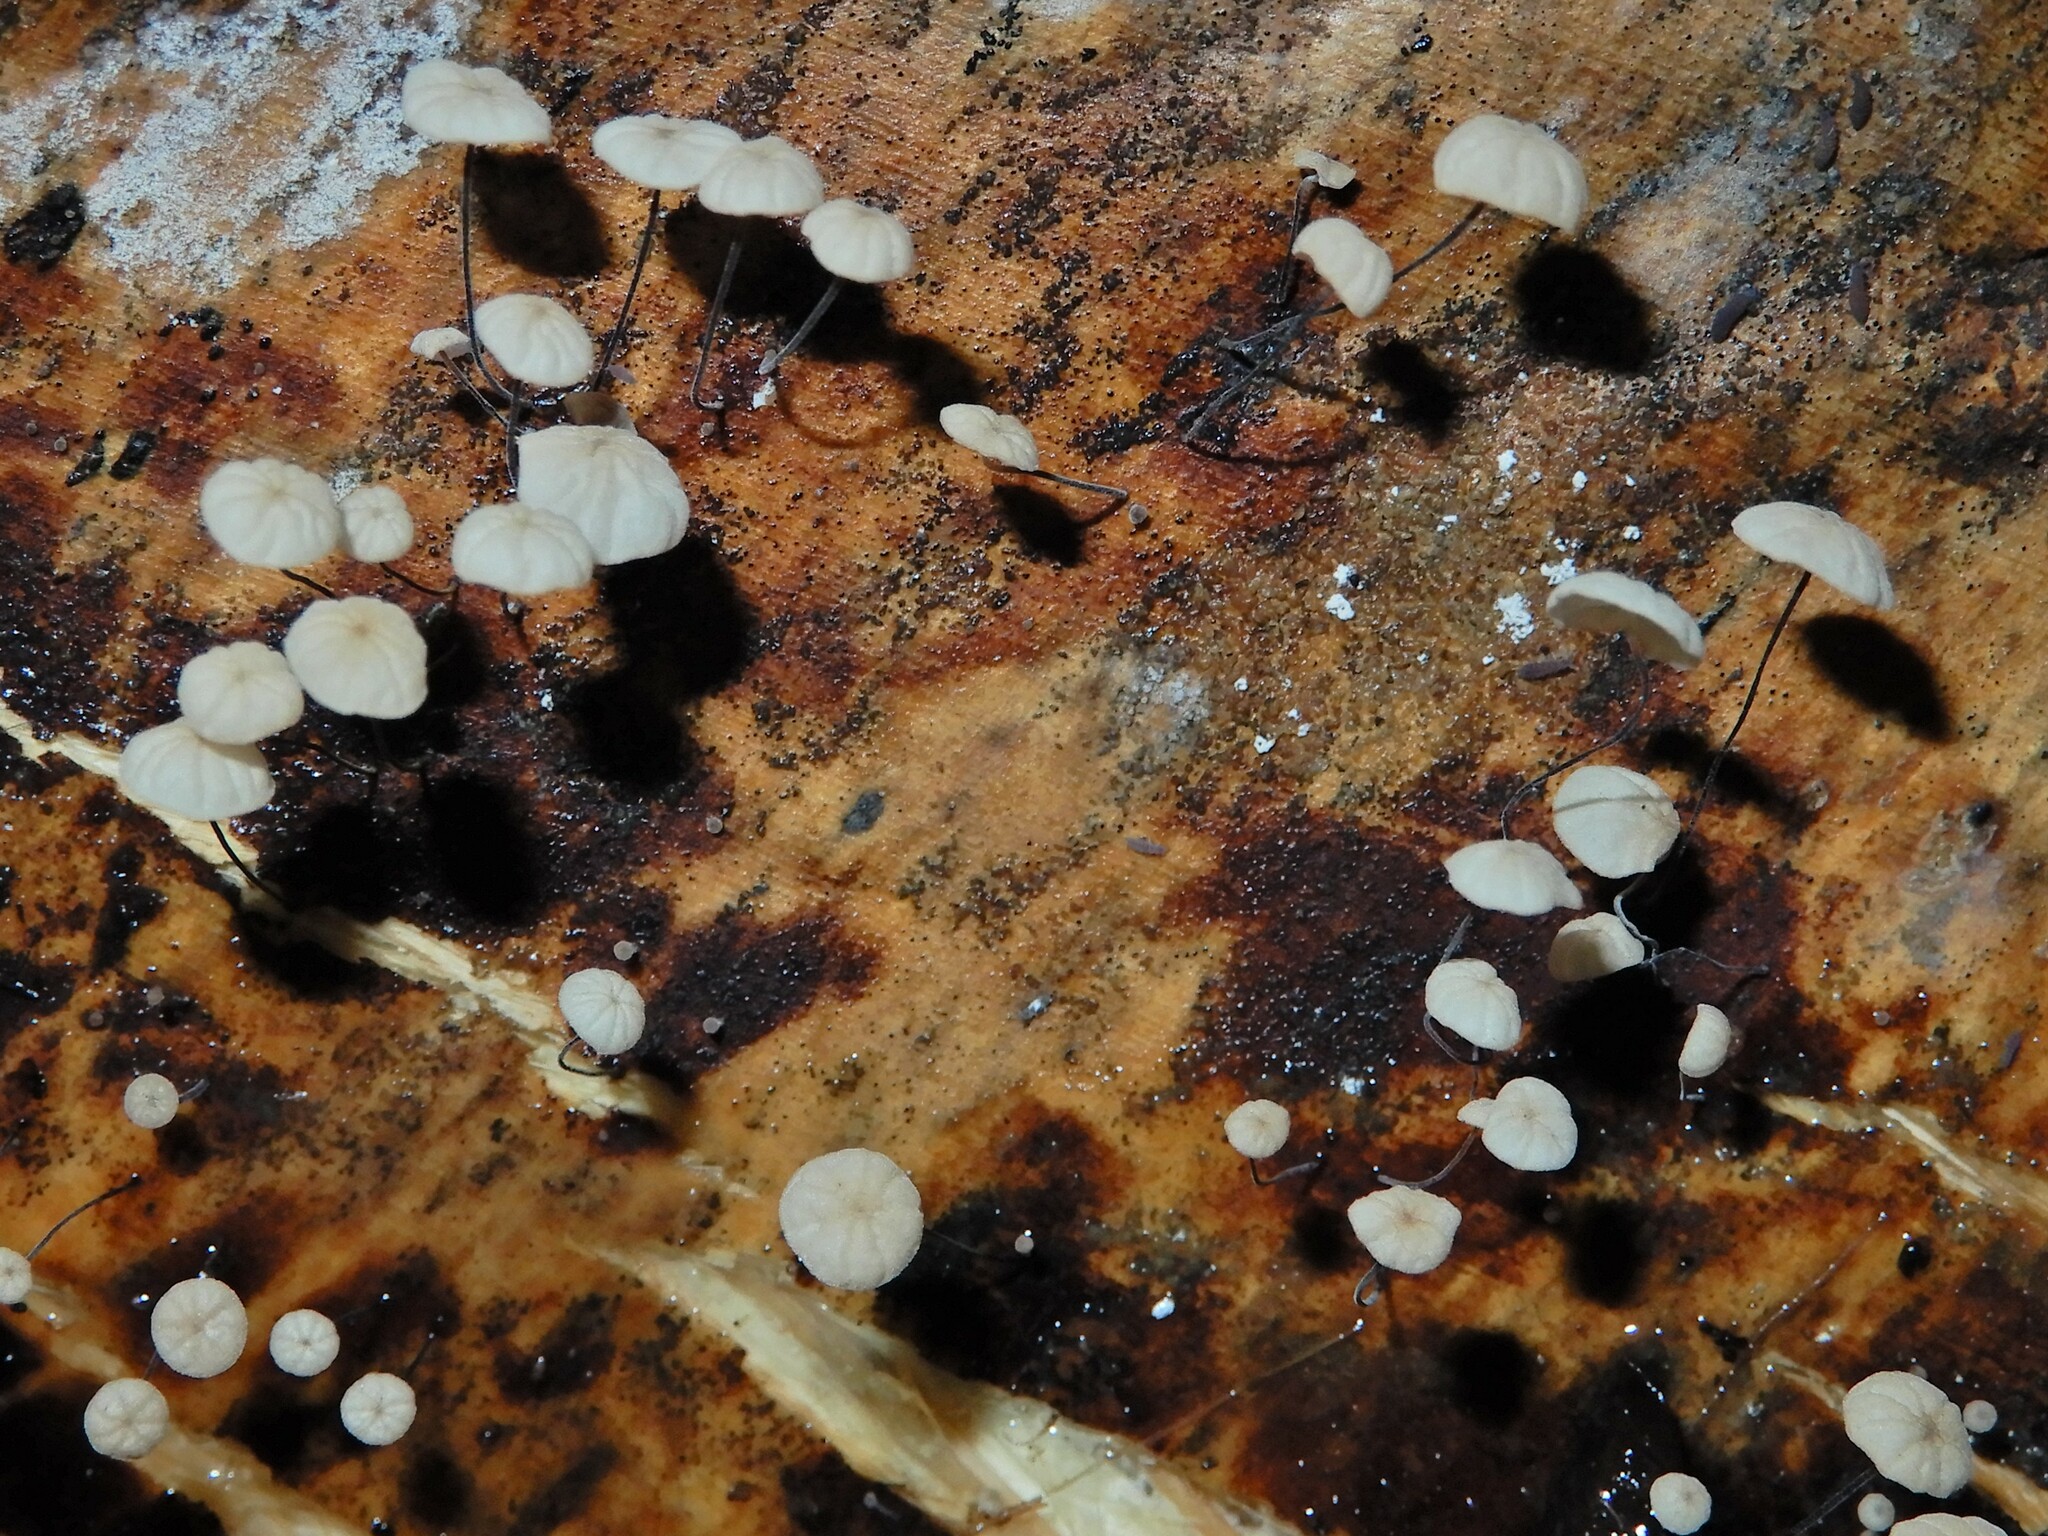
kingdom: Fungi
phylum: Basidiomycota
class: Agaricomycetes
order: Agaricales
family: Physalacriaceae
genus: Cryptomarasmius
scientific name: Cryptomarasmius rhopalostylidis
